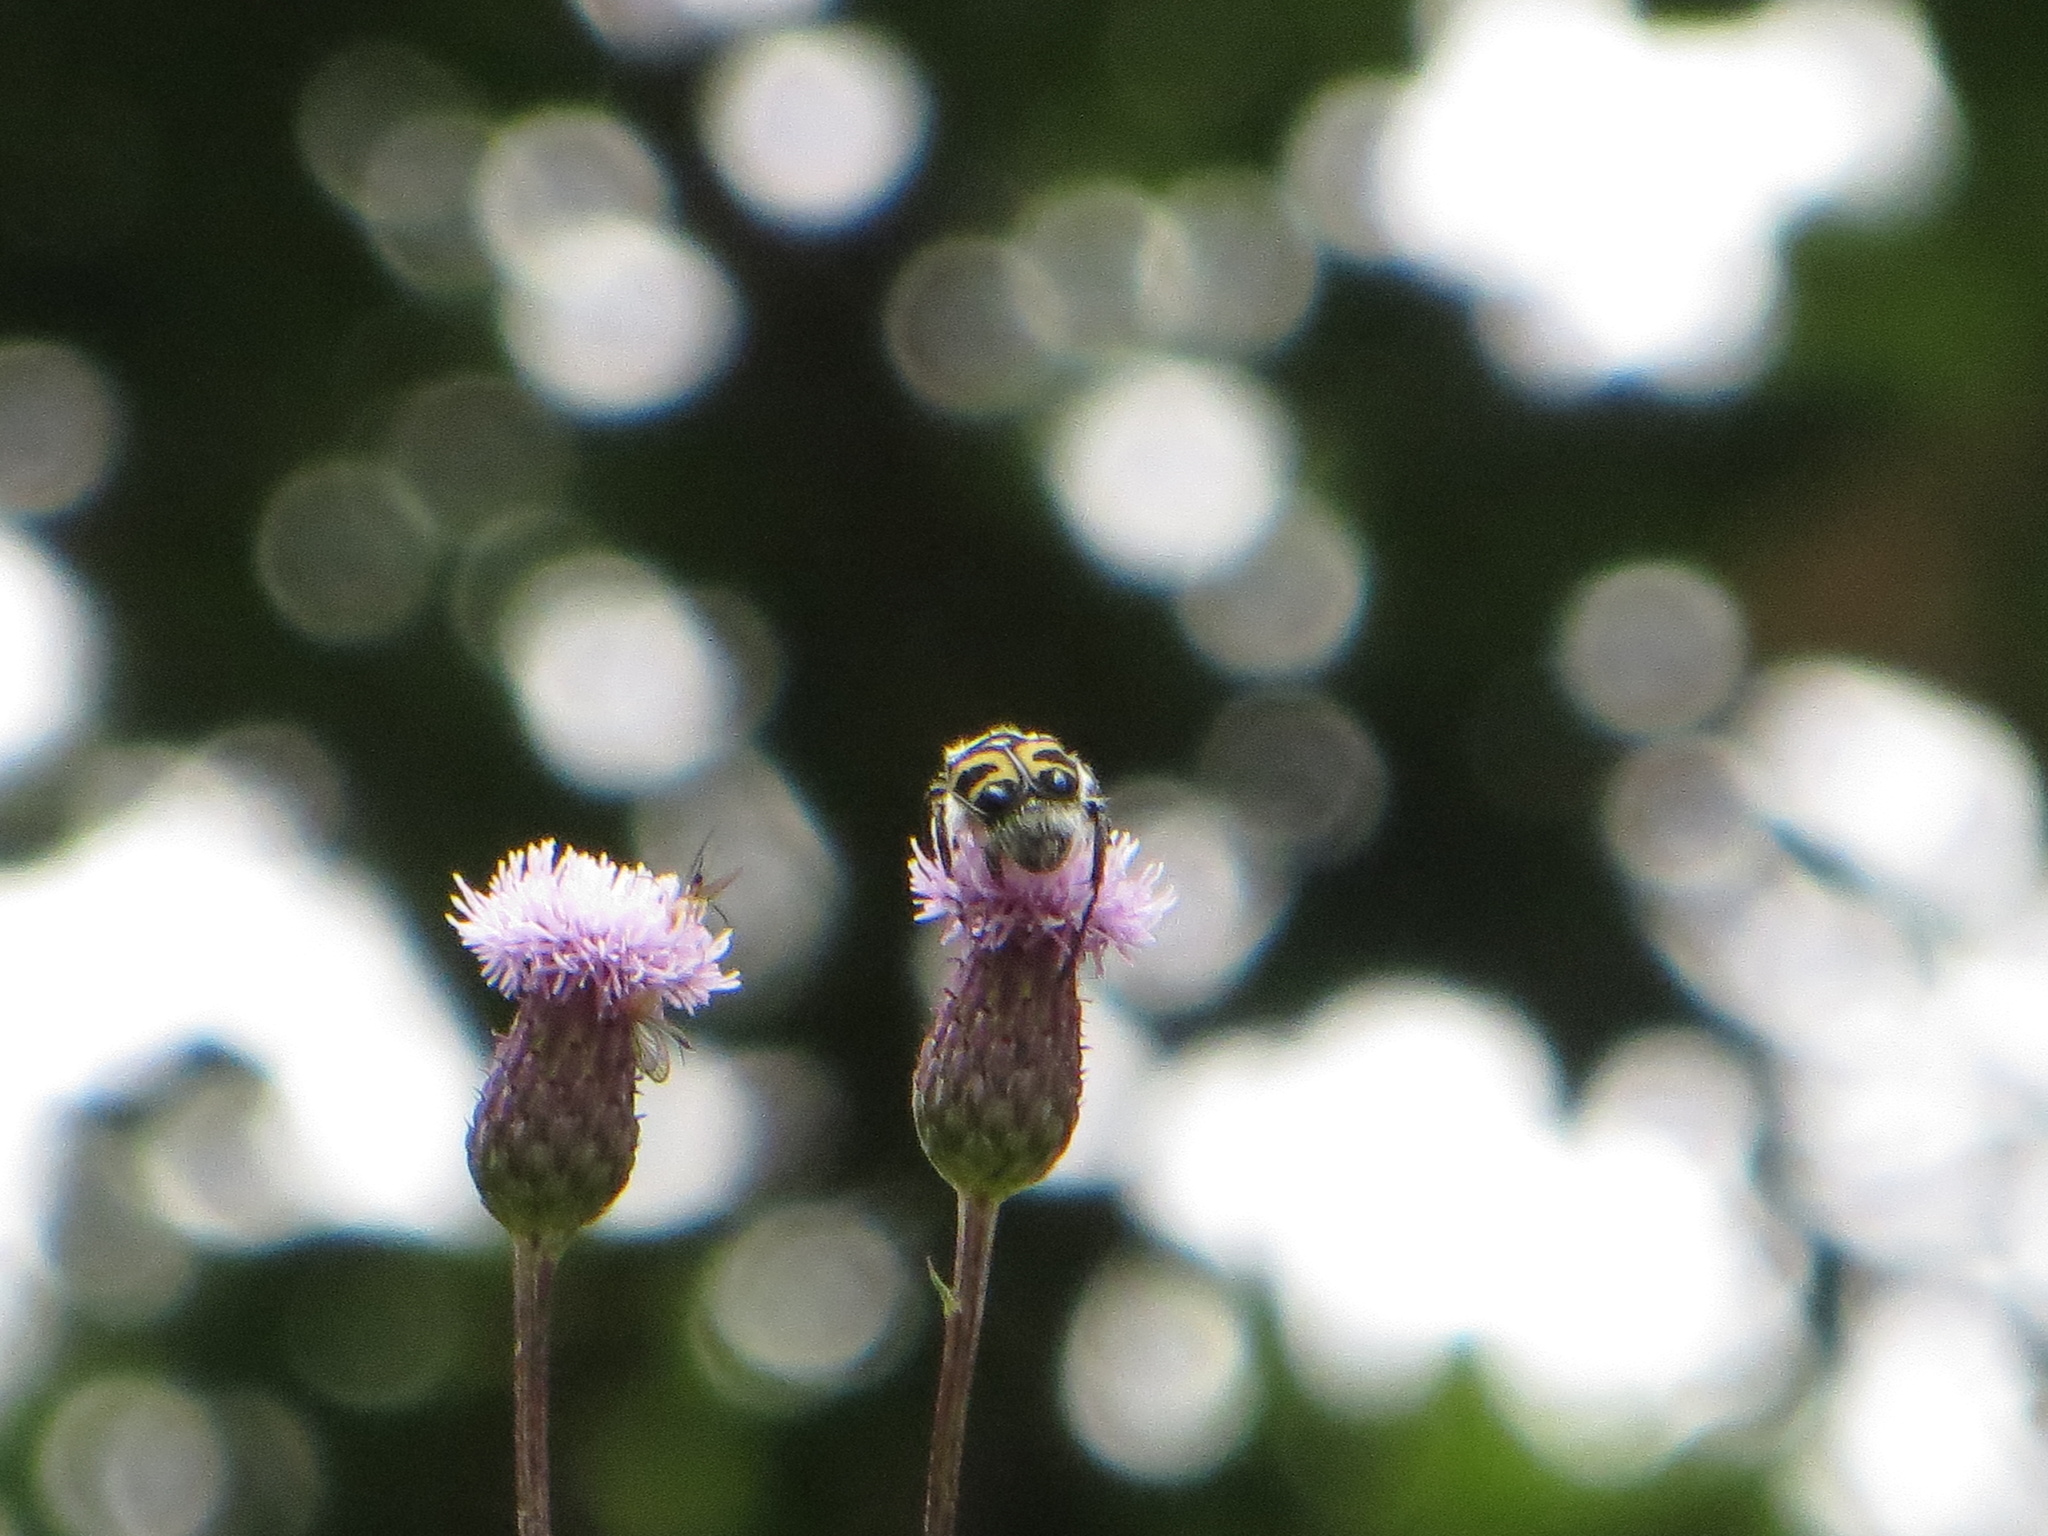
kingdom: Animalia
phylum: Arthropoda
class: Insecta
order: Coleoptera
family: Scarabaeidae
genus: Trichius
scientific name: Trichius fasciatus
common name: Bee beetle
